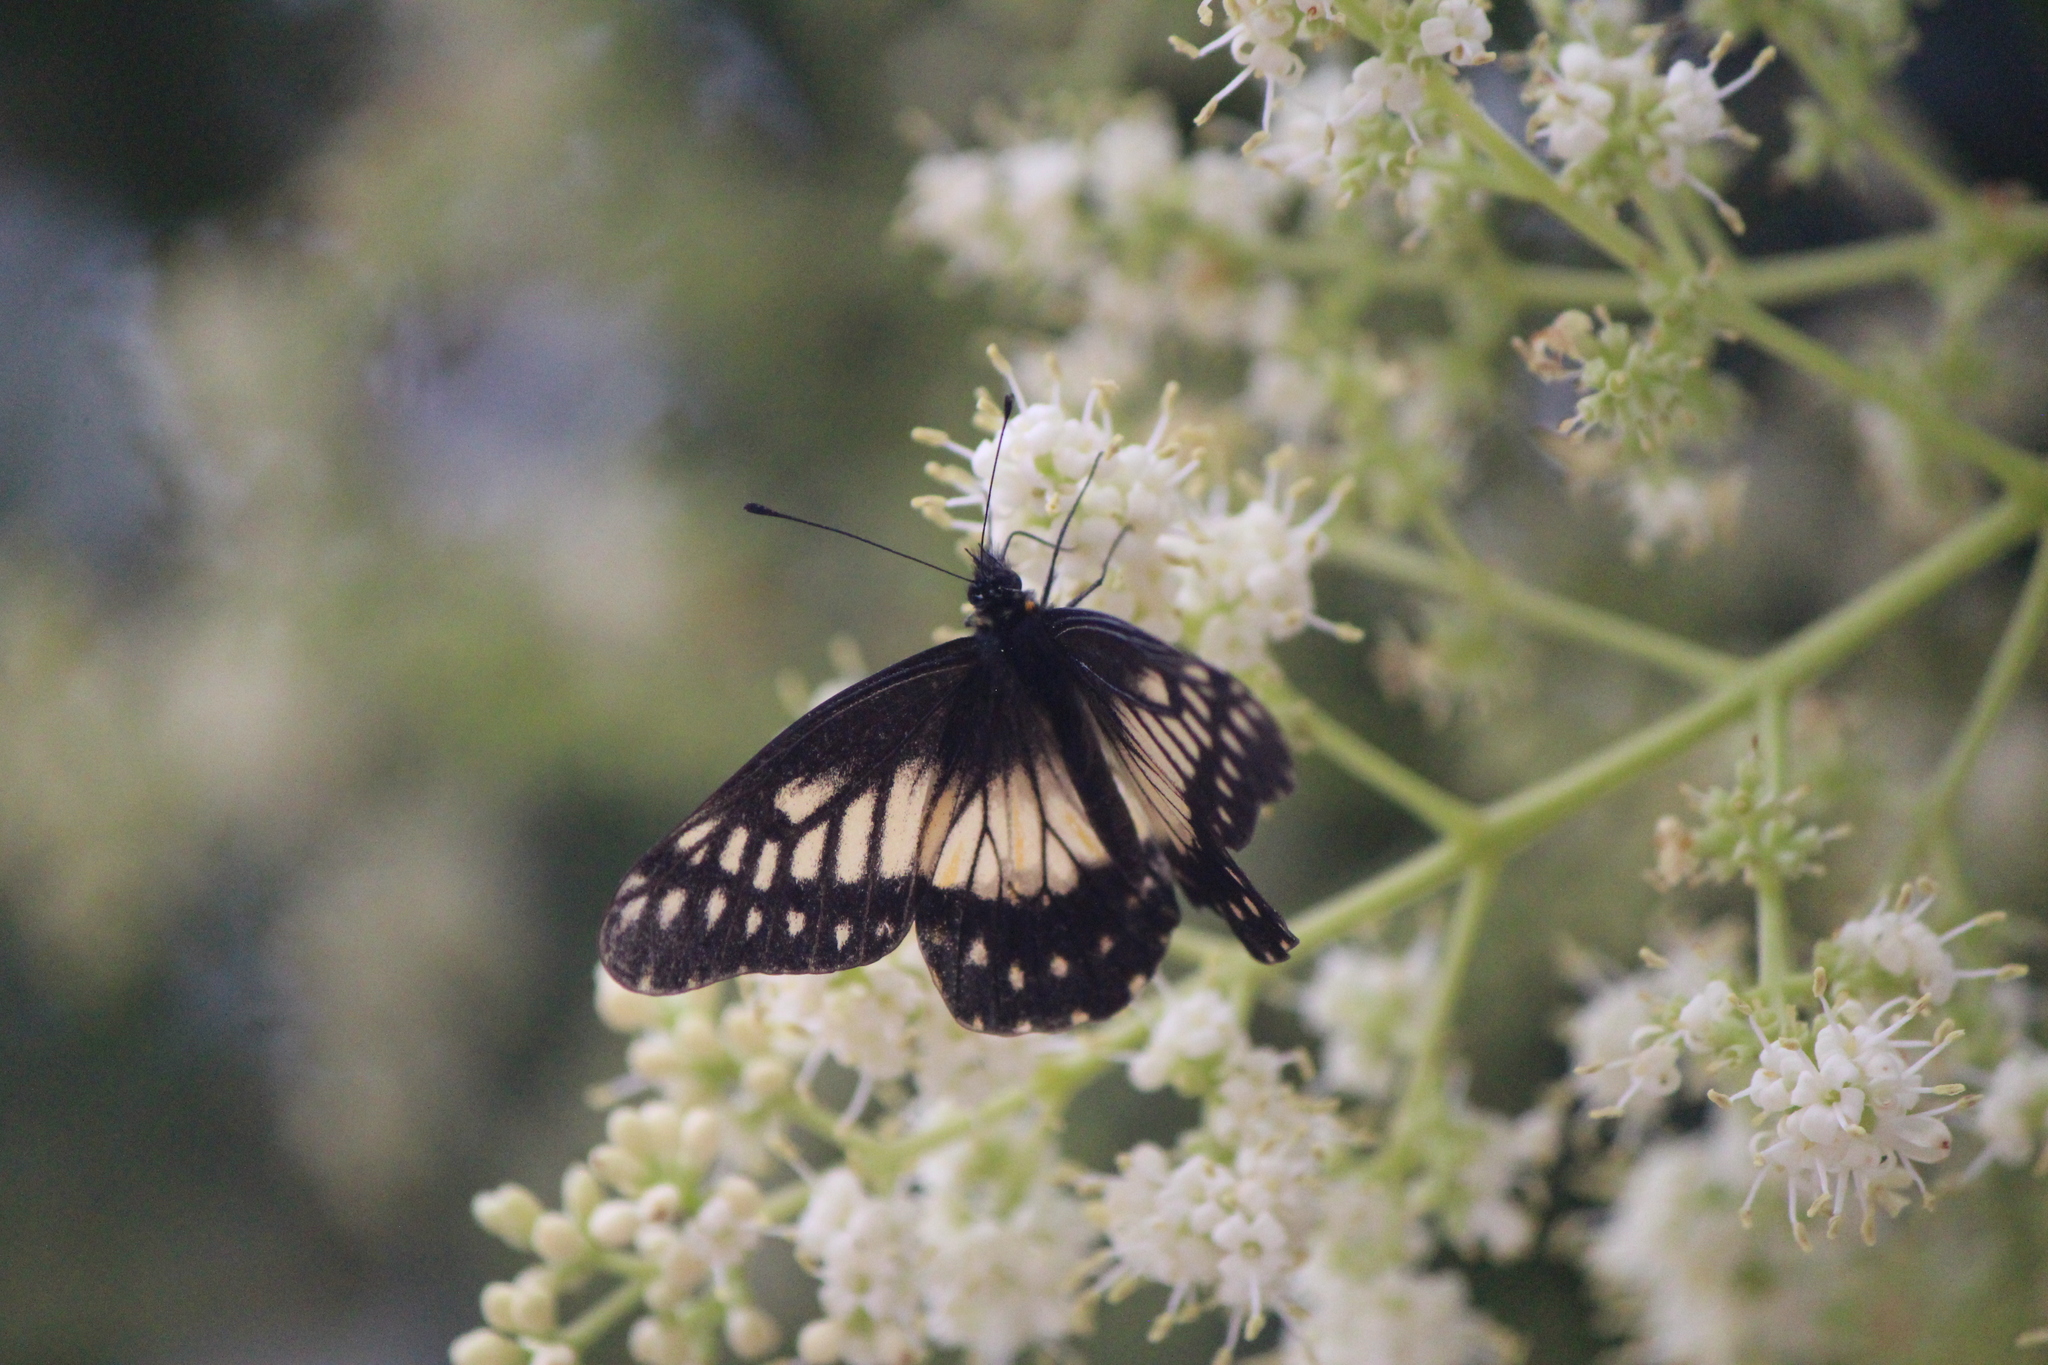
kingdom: Animalia
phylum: Arthropoda
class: Insecta
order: Lepidoptera
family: Pieridae
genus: Archonias
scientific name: Archonias nimbice
